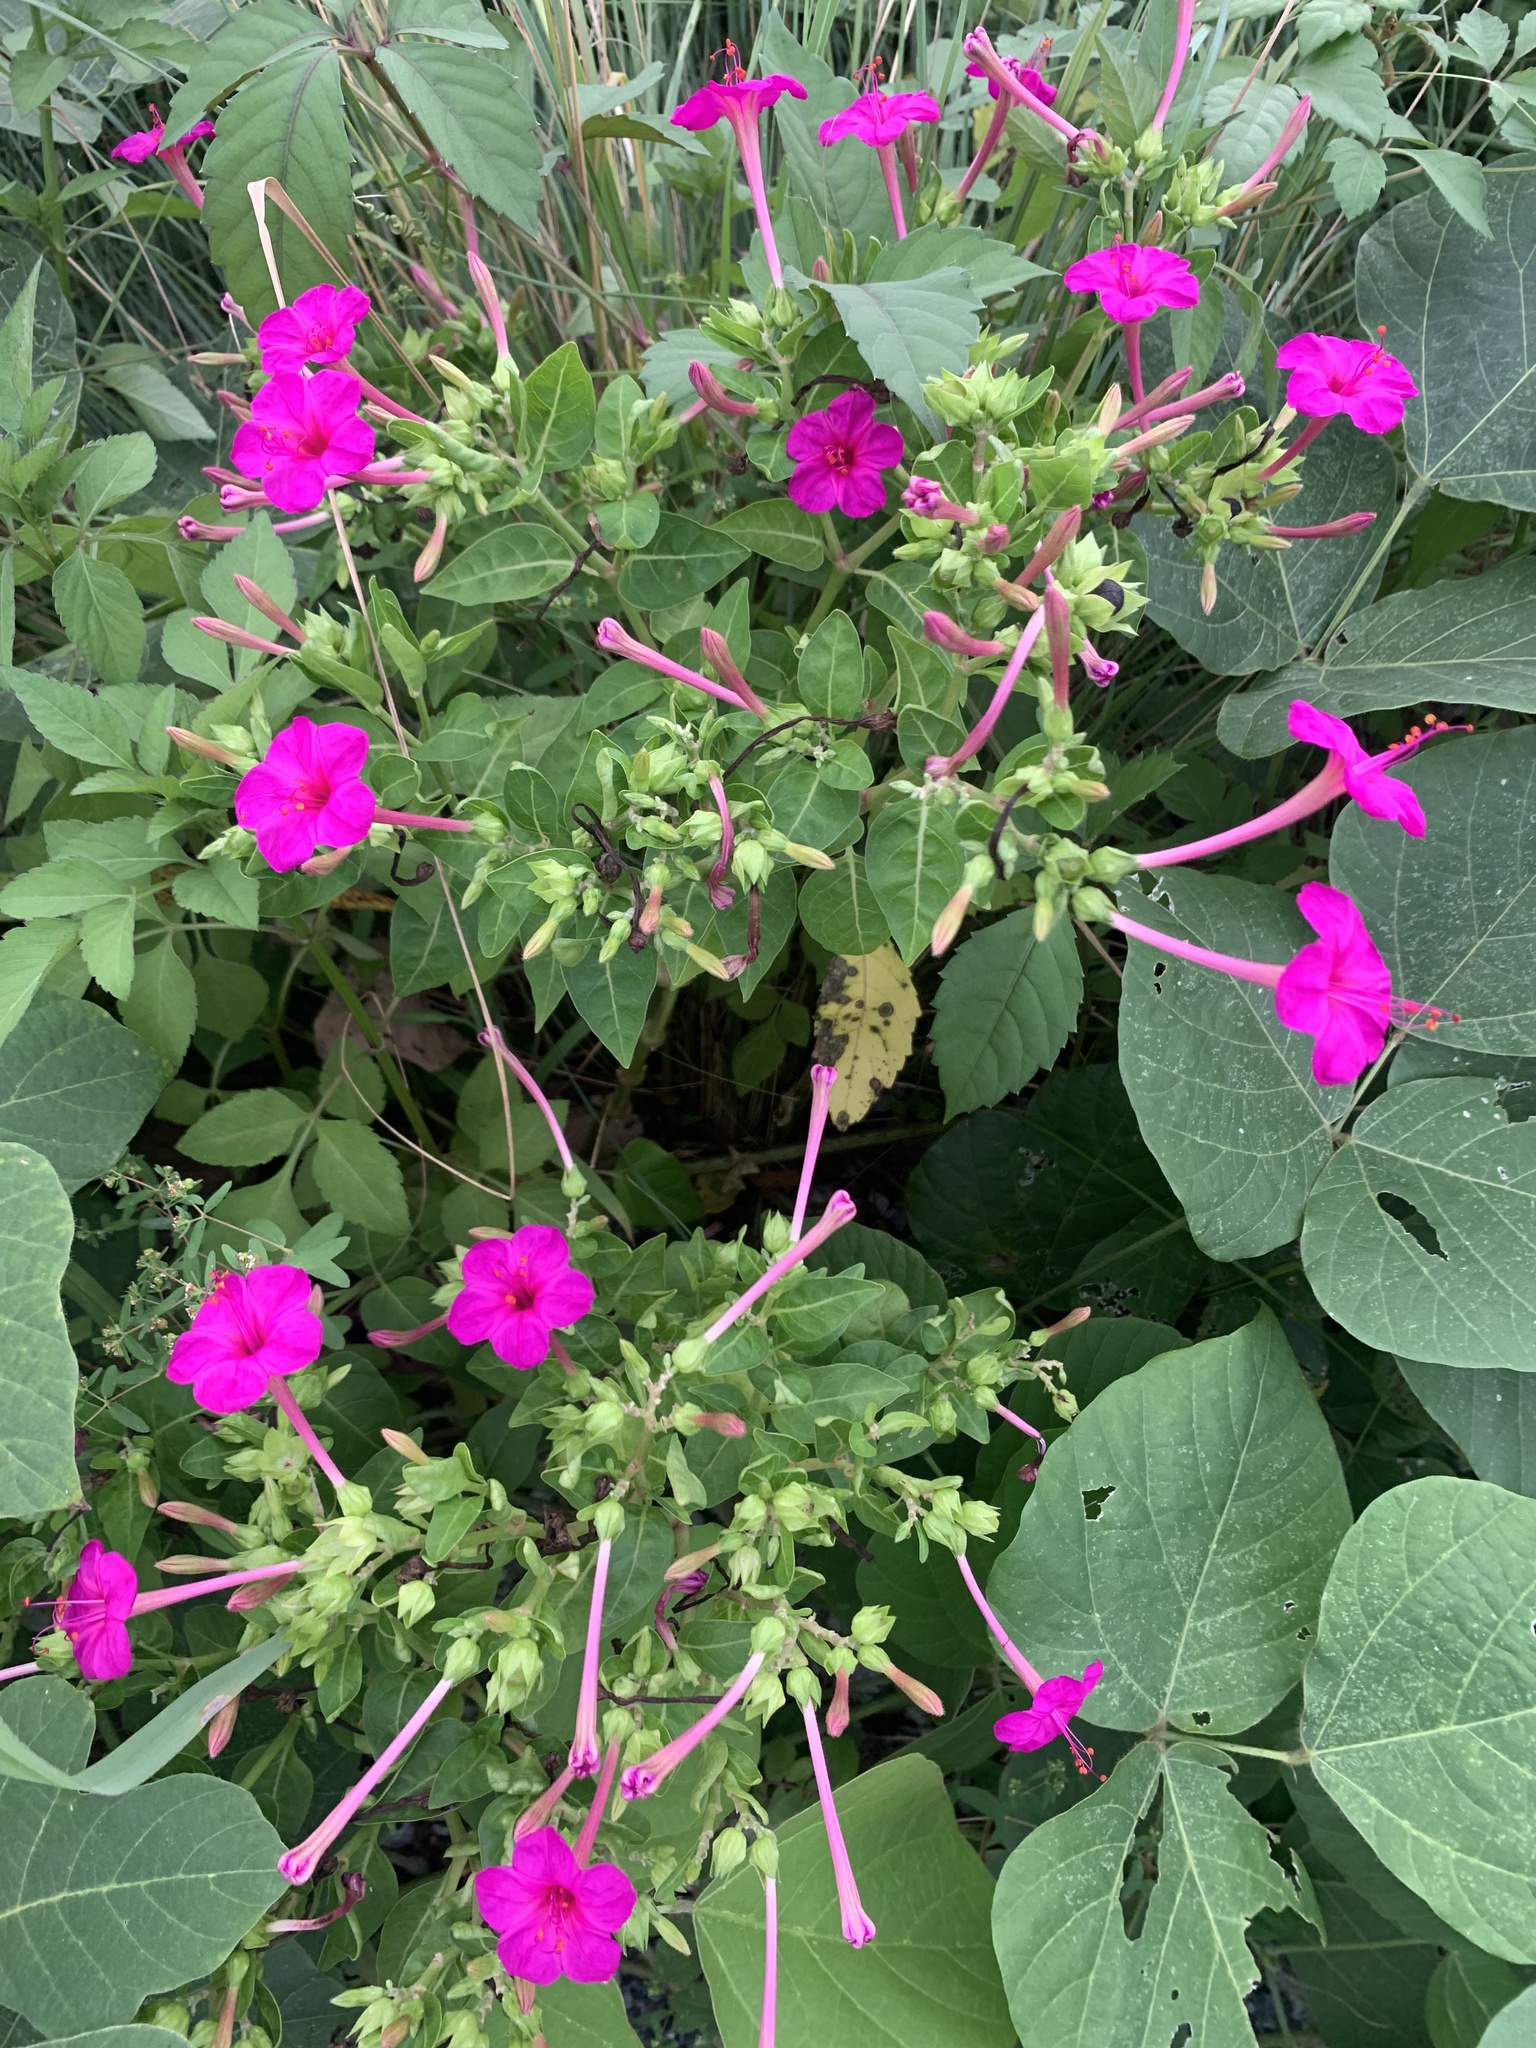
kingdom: Plantae
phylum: Tracheophyta
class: Magnoliopsida
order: Caryophyllales
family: Nyctaginaceae
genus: Mirabilis
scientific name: Mirabilis jalapa
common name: Marvel-of-peru
